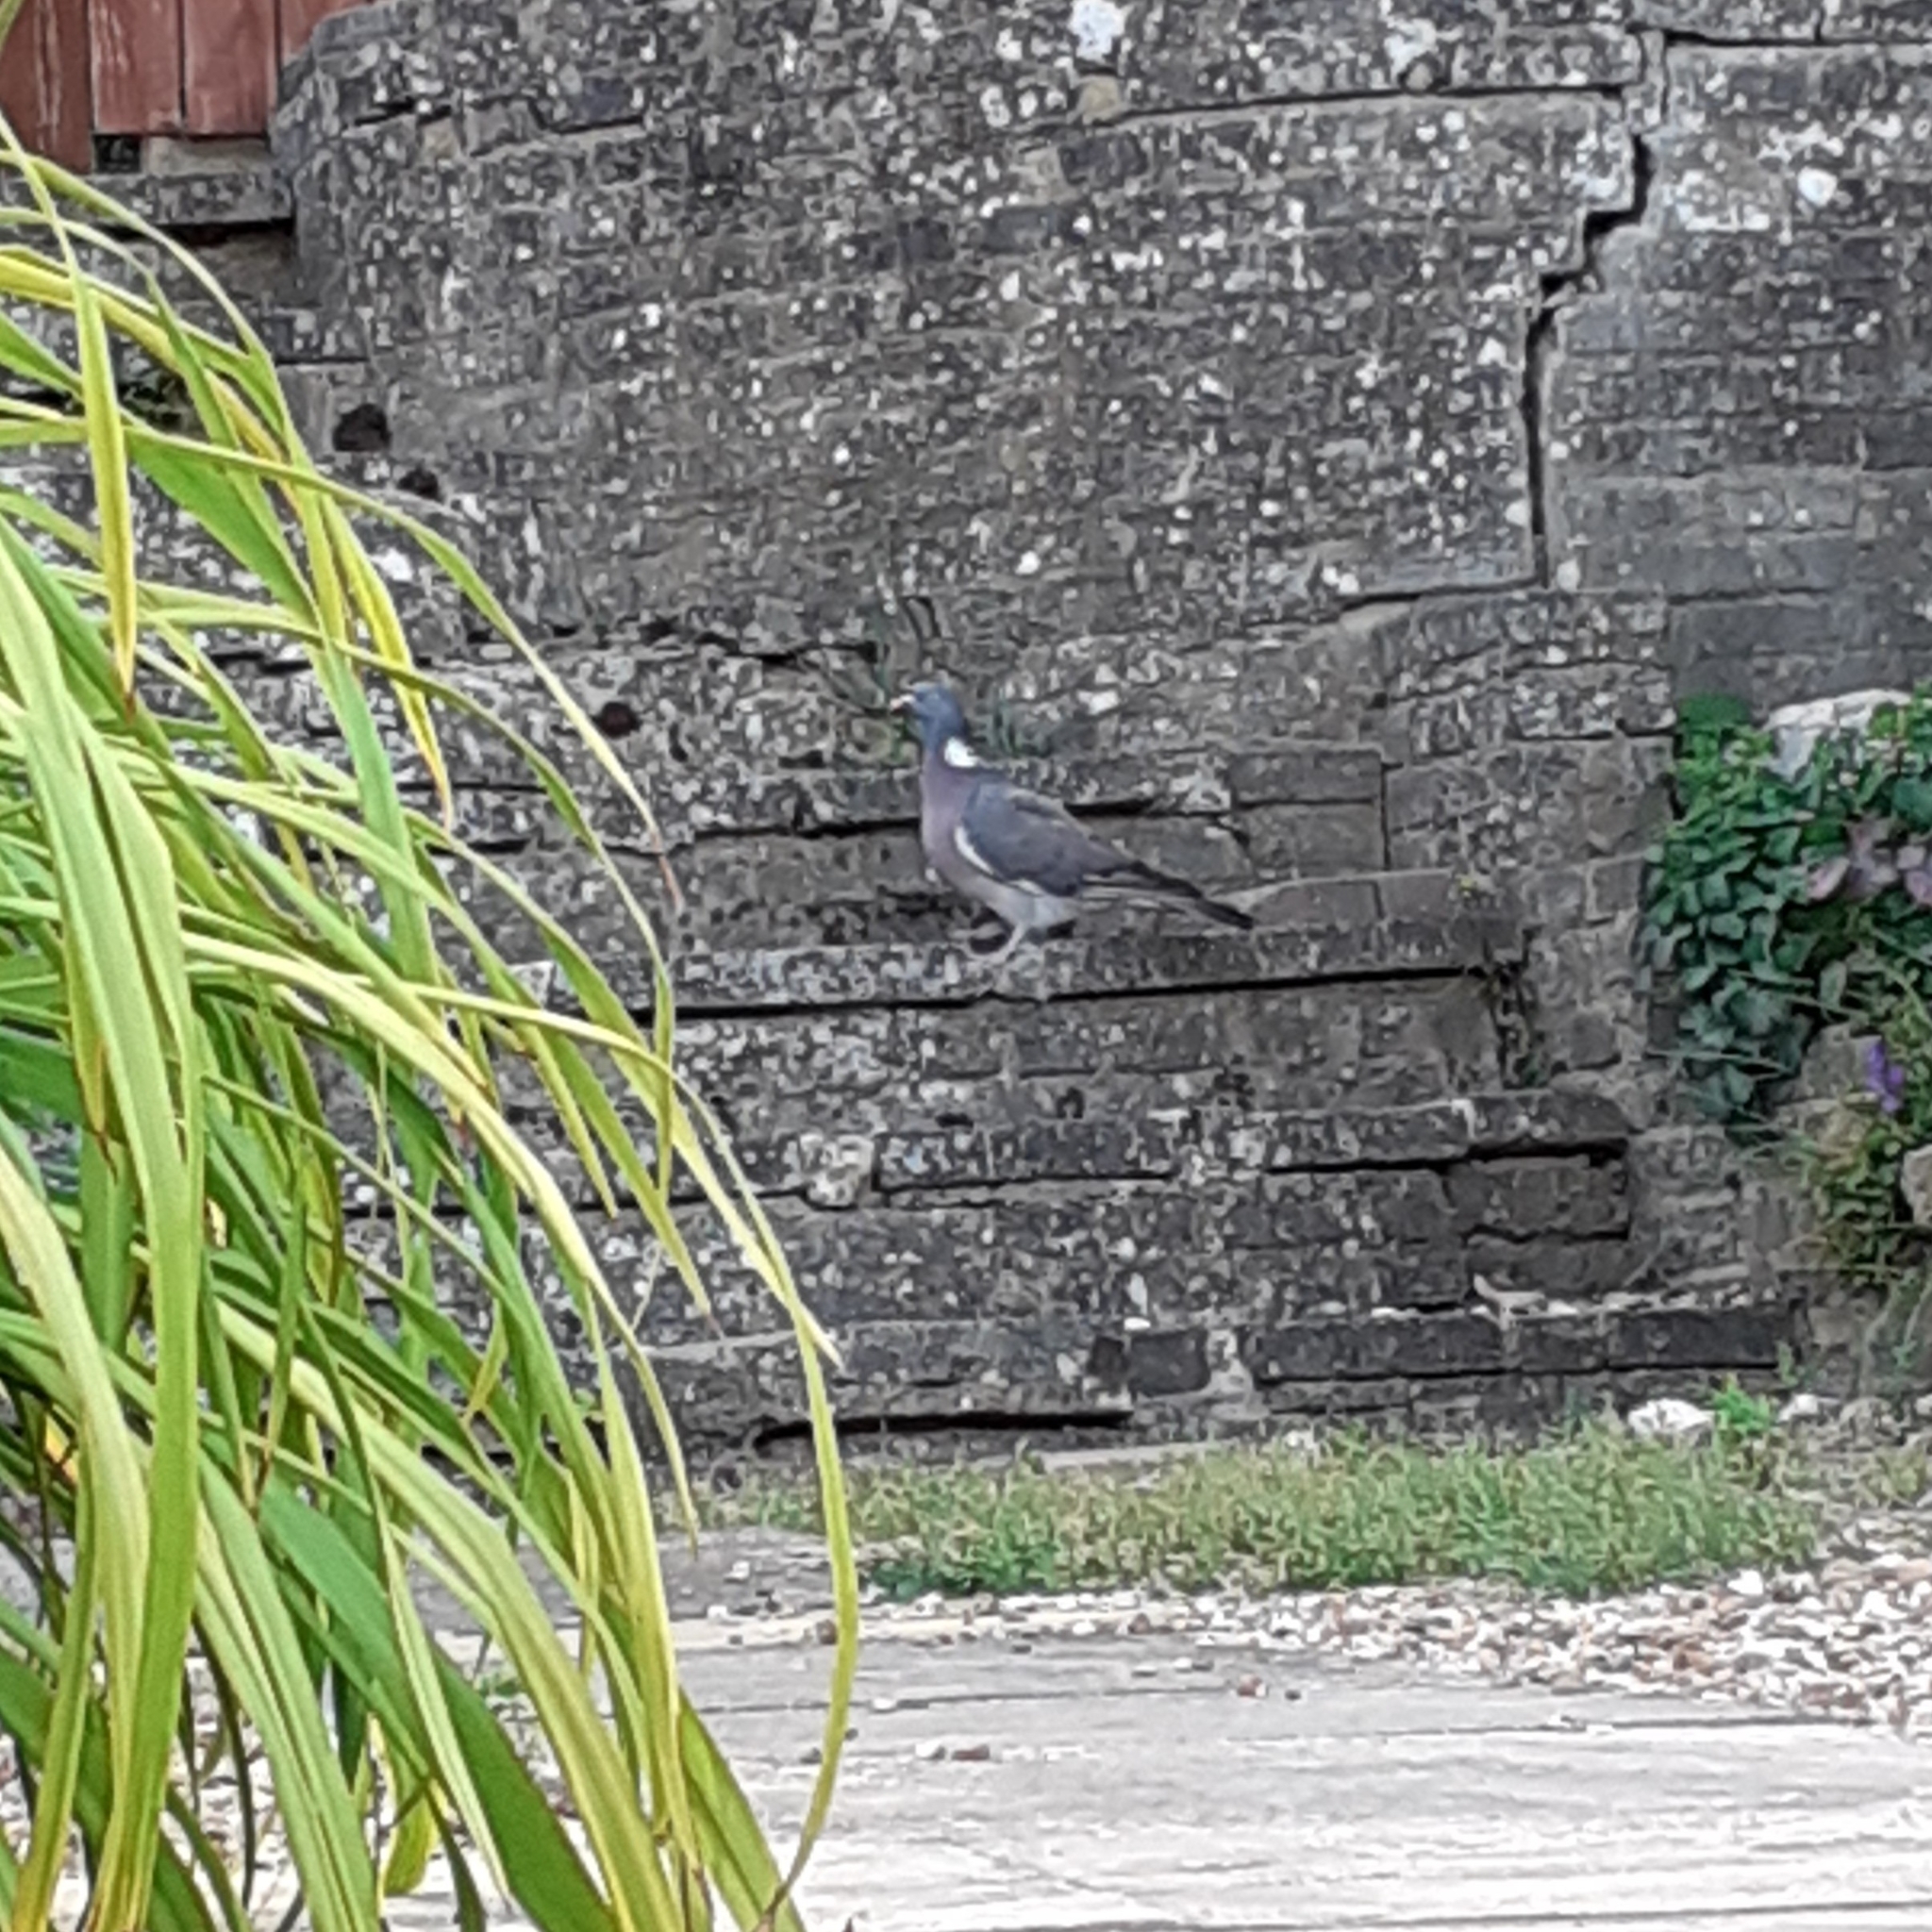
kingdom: Animalia
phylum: Chordata
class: Aves
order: Columbiformes
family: Columbidae
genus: Columba
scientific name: Columba palumbus
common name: Common wood pigeon
